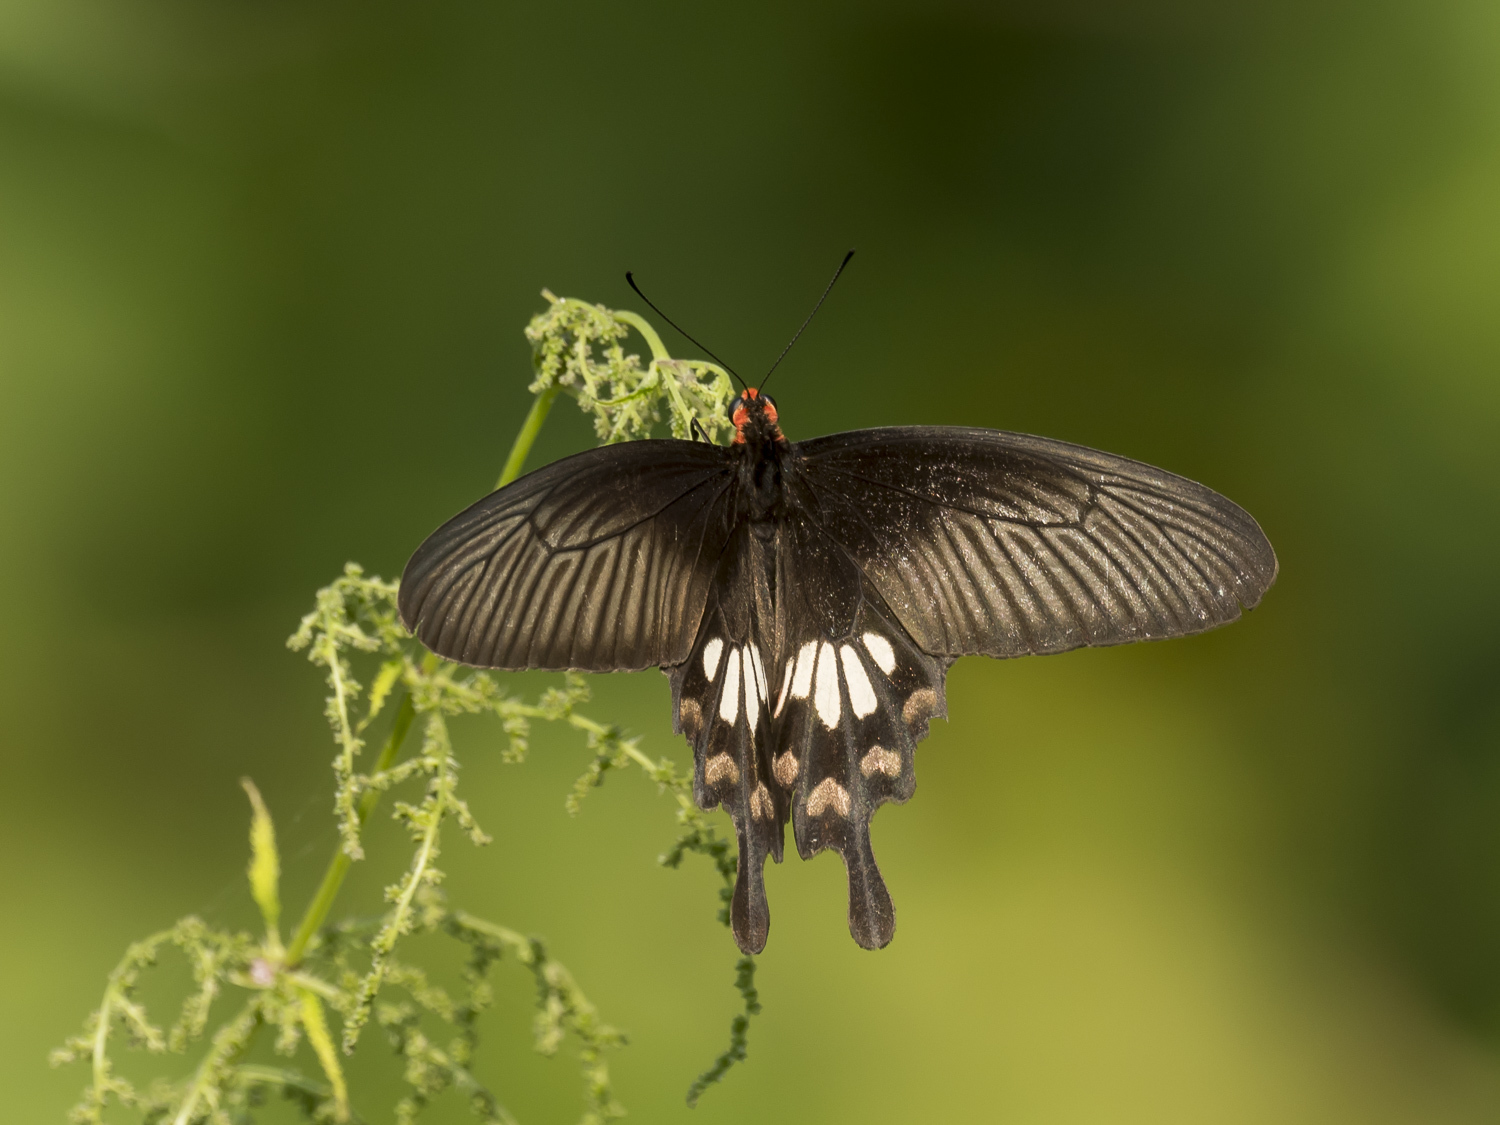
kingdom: Animalia
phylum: Arthropoda
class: Insecta
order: Lepidoptera
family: Papilionidae
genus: Pachliopta
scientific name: Pachliopta aristolochiae
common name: Common rose
